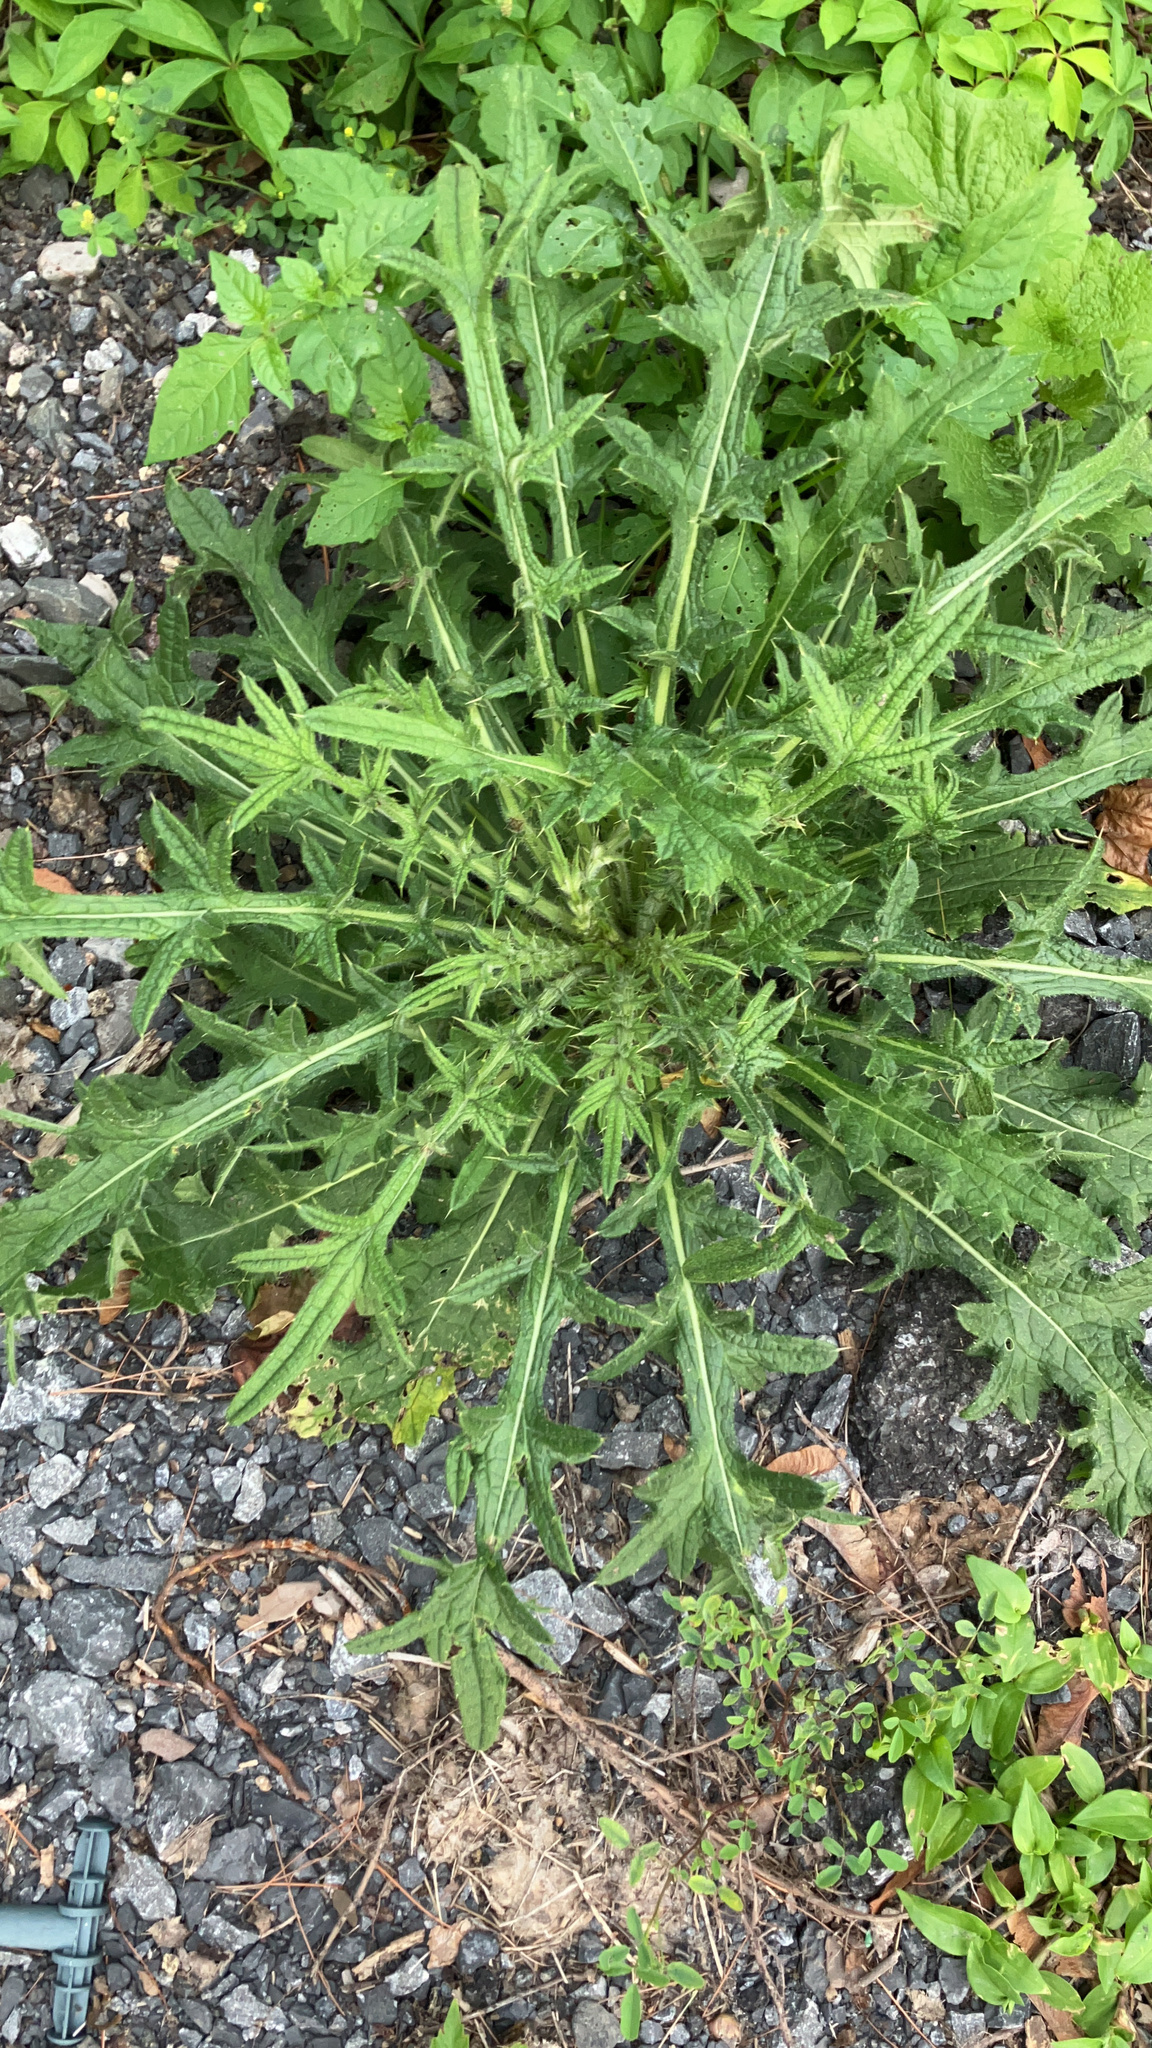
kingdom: Plantae
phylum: Tracheophyta
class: Magnoliopsida
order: Asterales
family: Asteraceae
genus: Cirsium
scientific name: Cirsium vulgare
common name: Bull thistle
